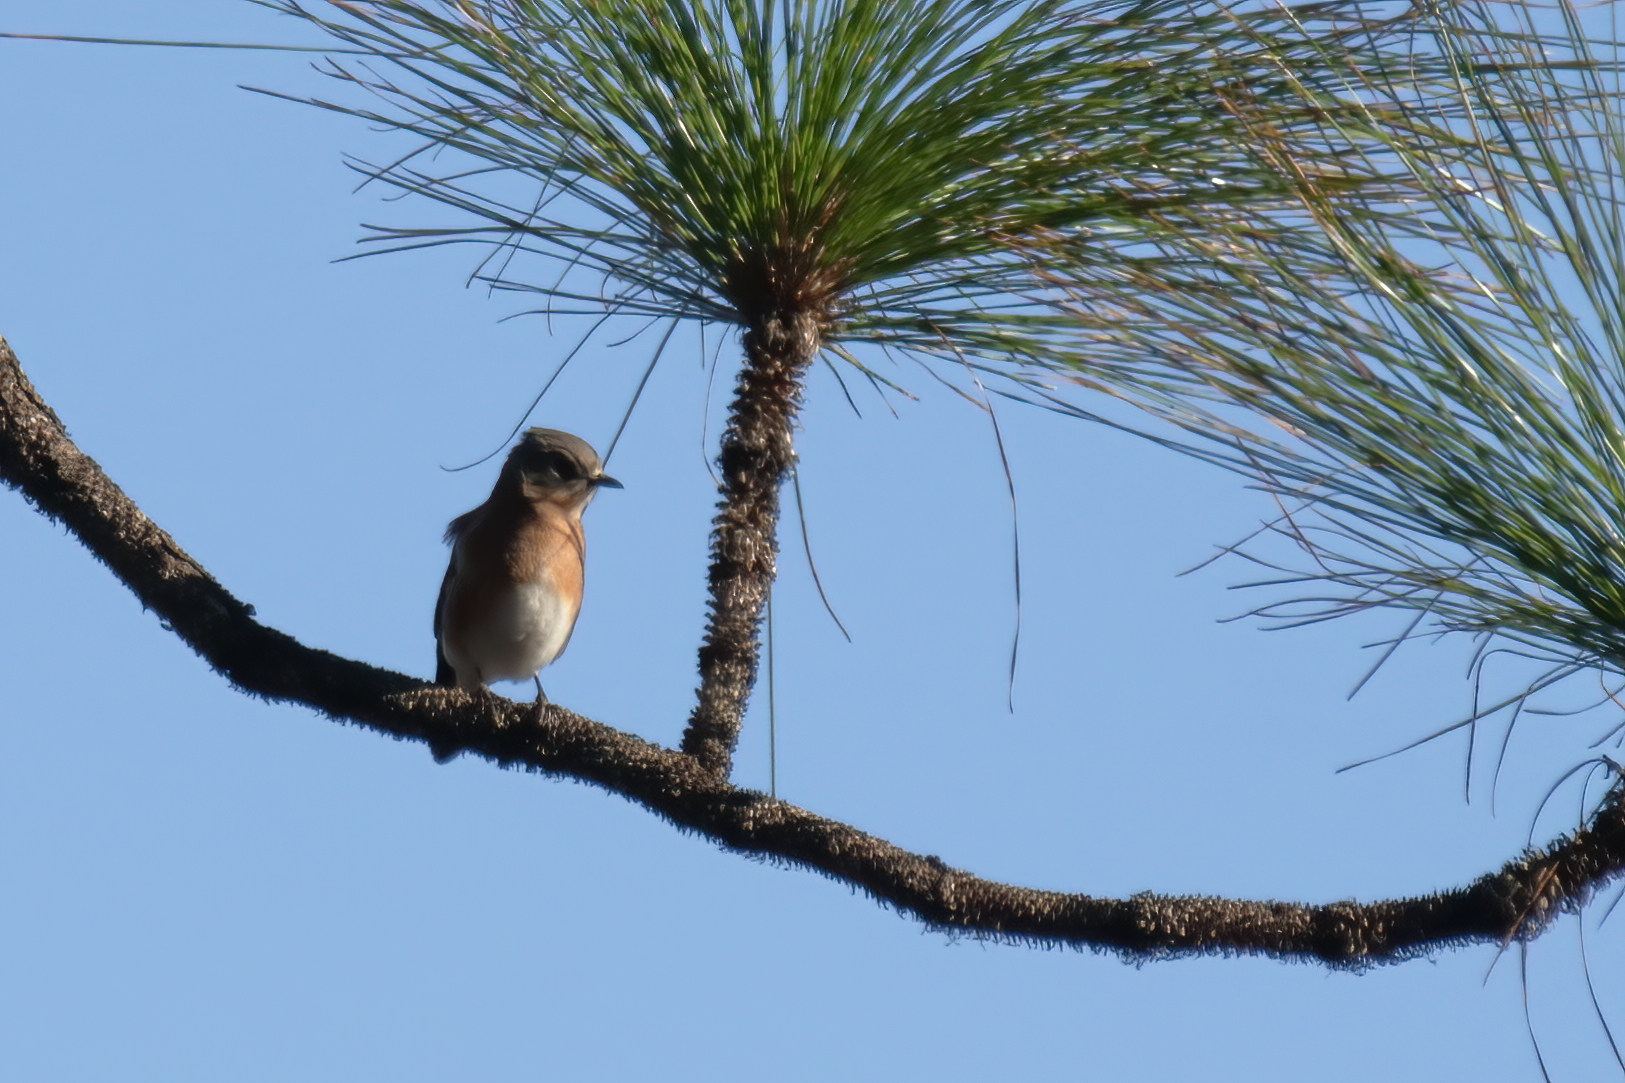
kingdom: Animalia
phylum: Chordata
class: Aves
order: Passeriformes
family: Turdidae
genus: Sialia
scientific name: Sialia sialis
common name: Eastern bluebird
